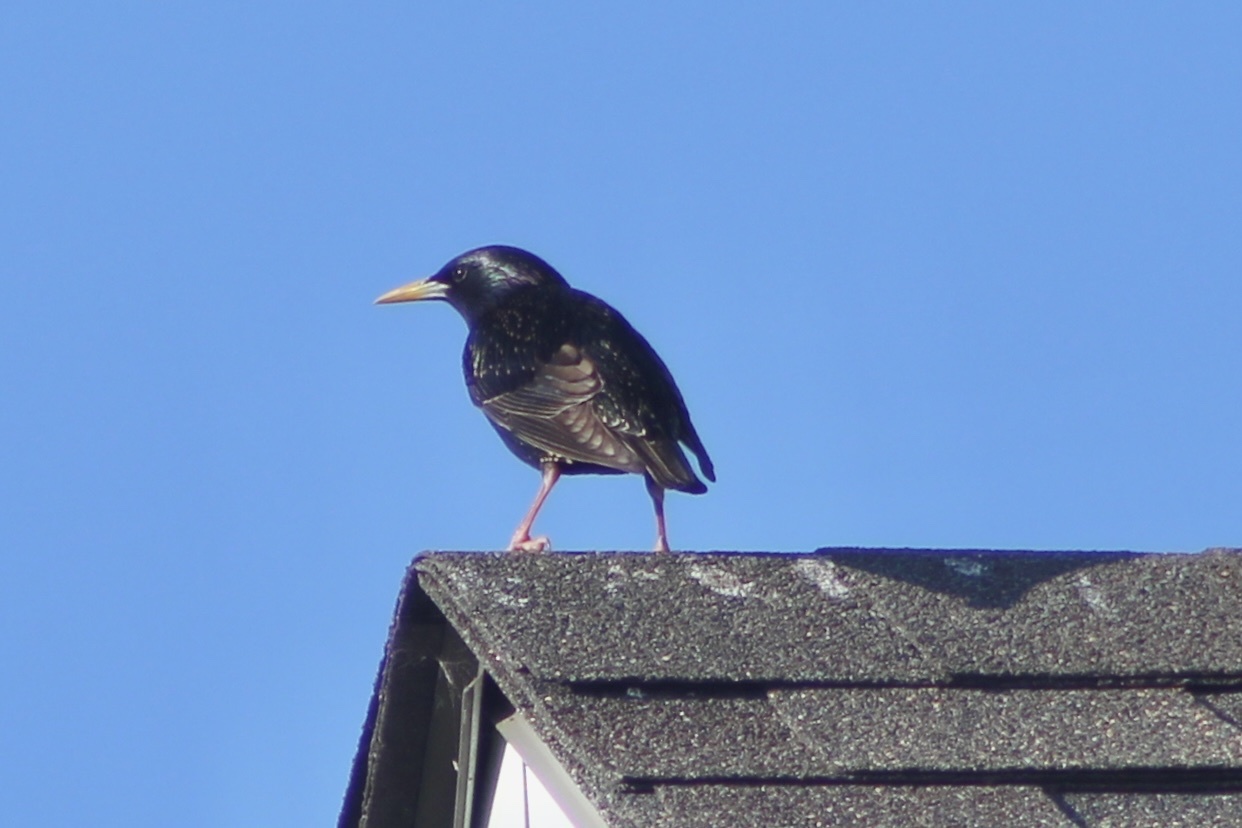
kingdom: Animalia
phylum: Chordata
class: Aves
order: Passeriformes
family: Sturnidae
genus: Sturnus
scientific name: Sturnus vulgaris
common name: Common starling
